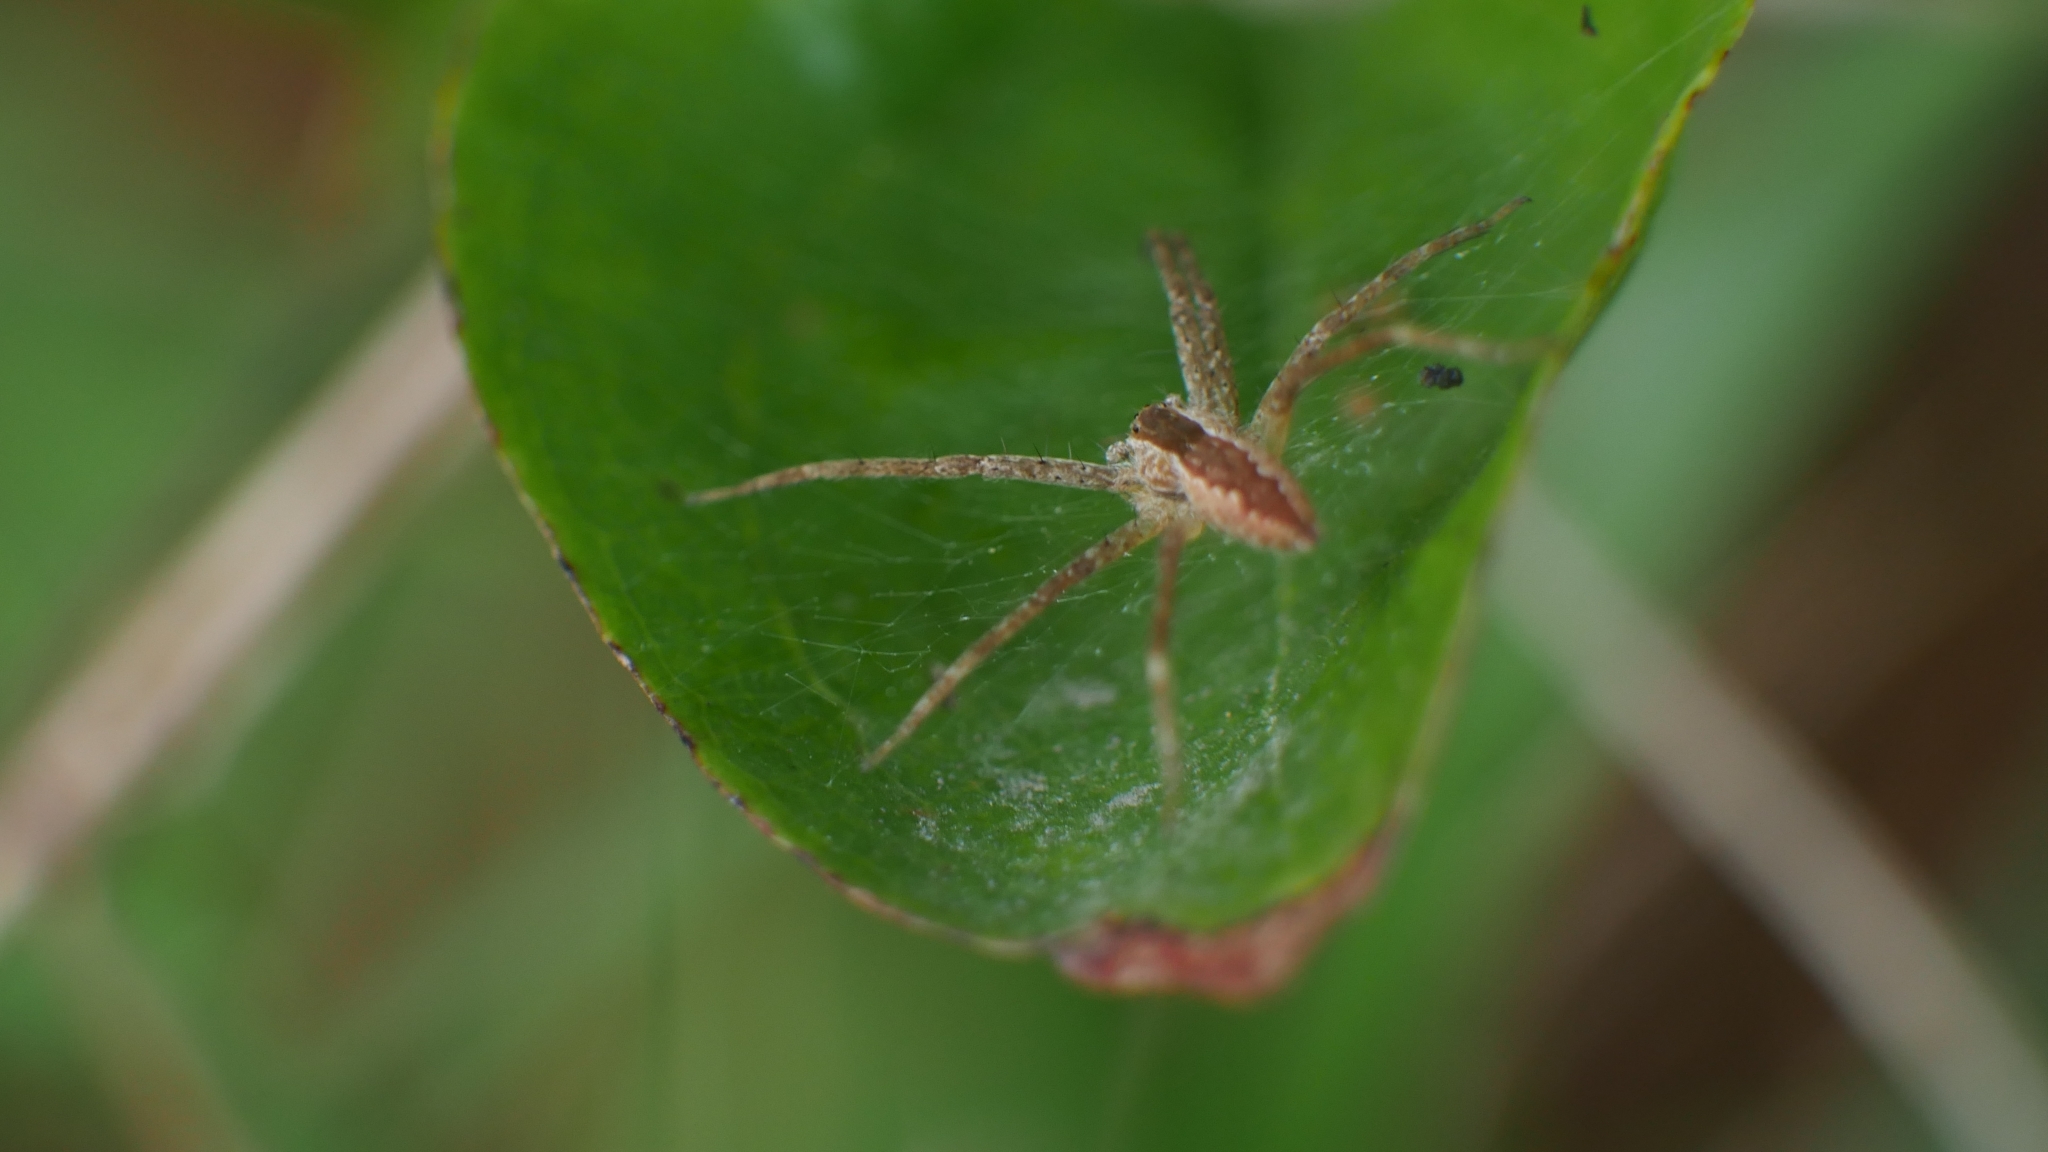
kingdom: Animalia
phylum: Arthropoda
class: Arachnida
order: Araneae
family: Pisauridae
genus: Pisaurina
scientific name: Pisaurina mira
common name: American nursery web spider
